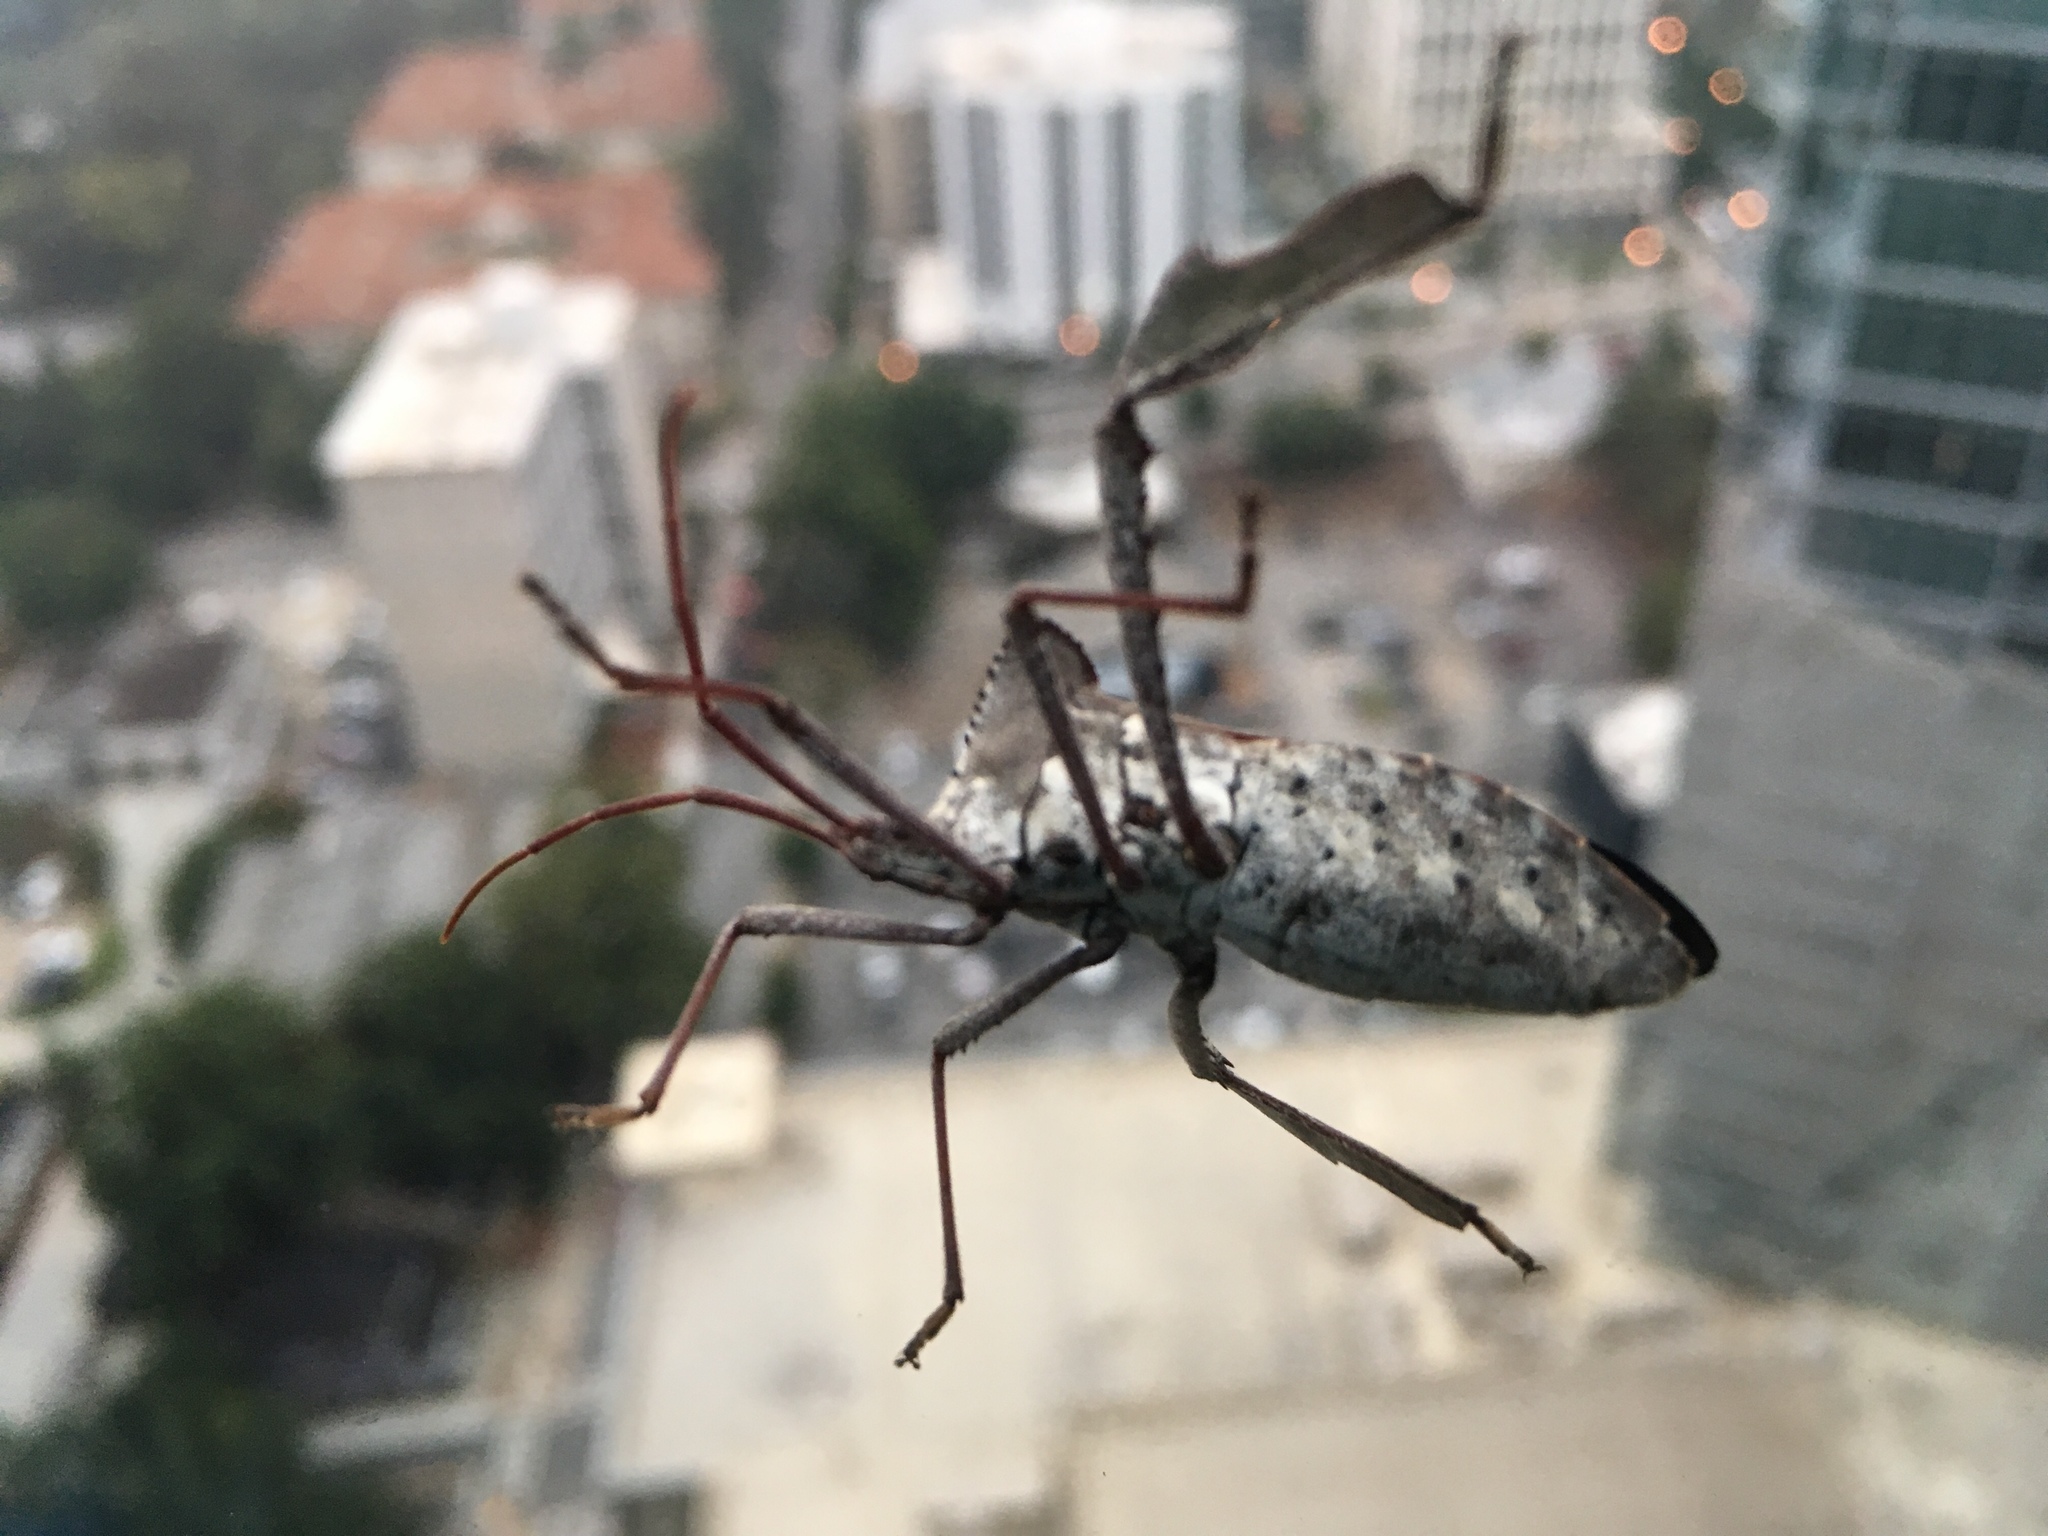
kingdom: Animalia
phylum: Arthropoda
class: Insecta
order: Hemiptera
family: Coreidae
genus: Acanthocephala
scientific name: Acanthocephala declivis
